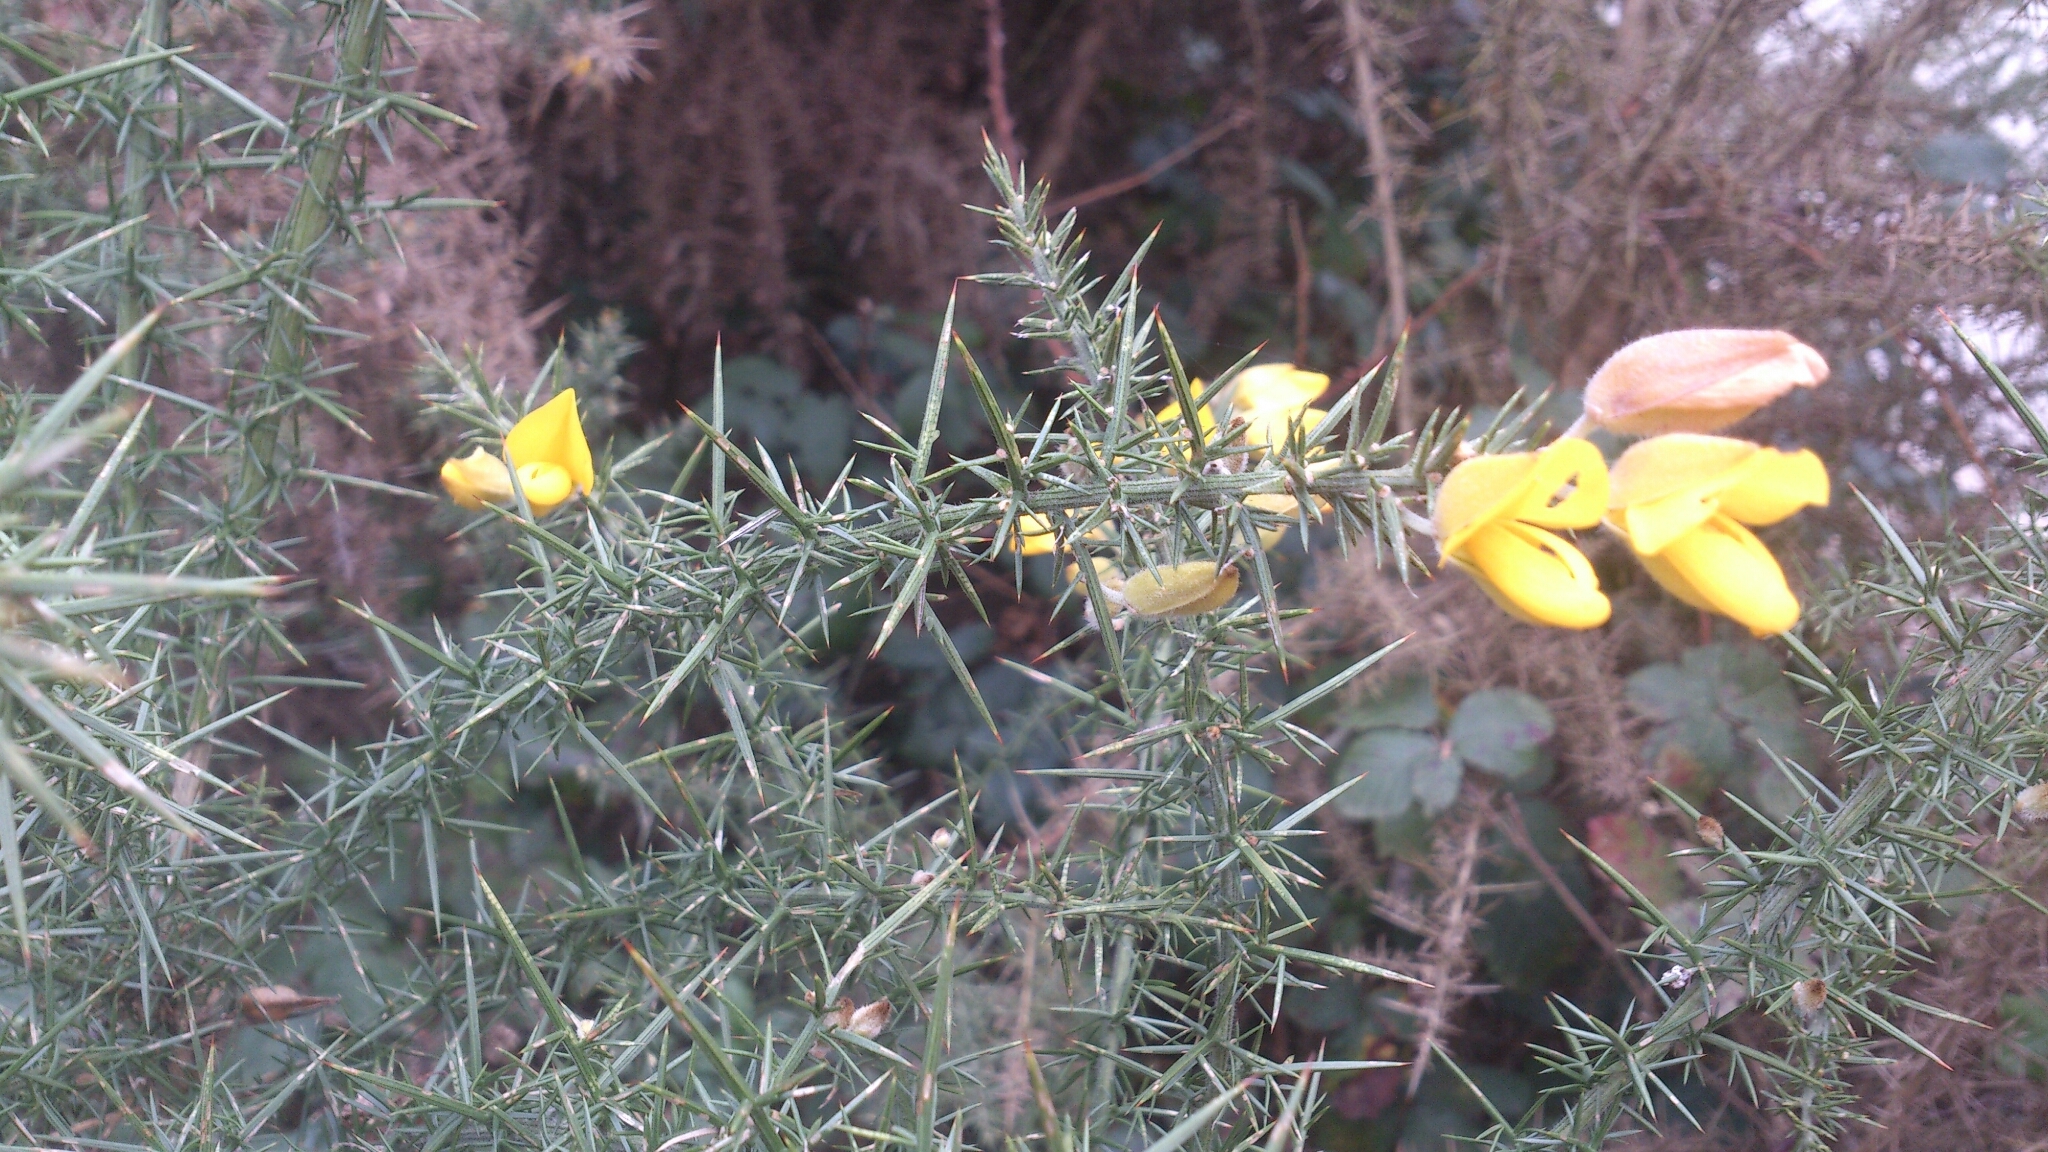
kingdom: Plantae
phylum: Tracheophyta
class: Magnoliopsida
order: Fabales
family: Fabaceae
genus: Ulex
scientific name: Ulex europaeus
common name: Common gorse
